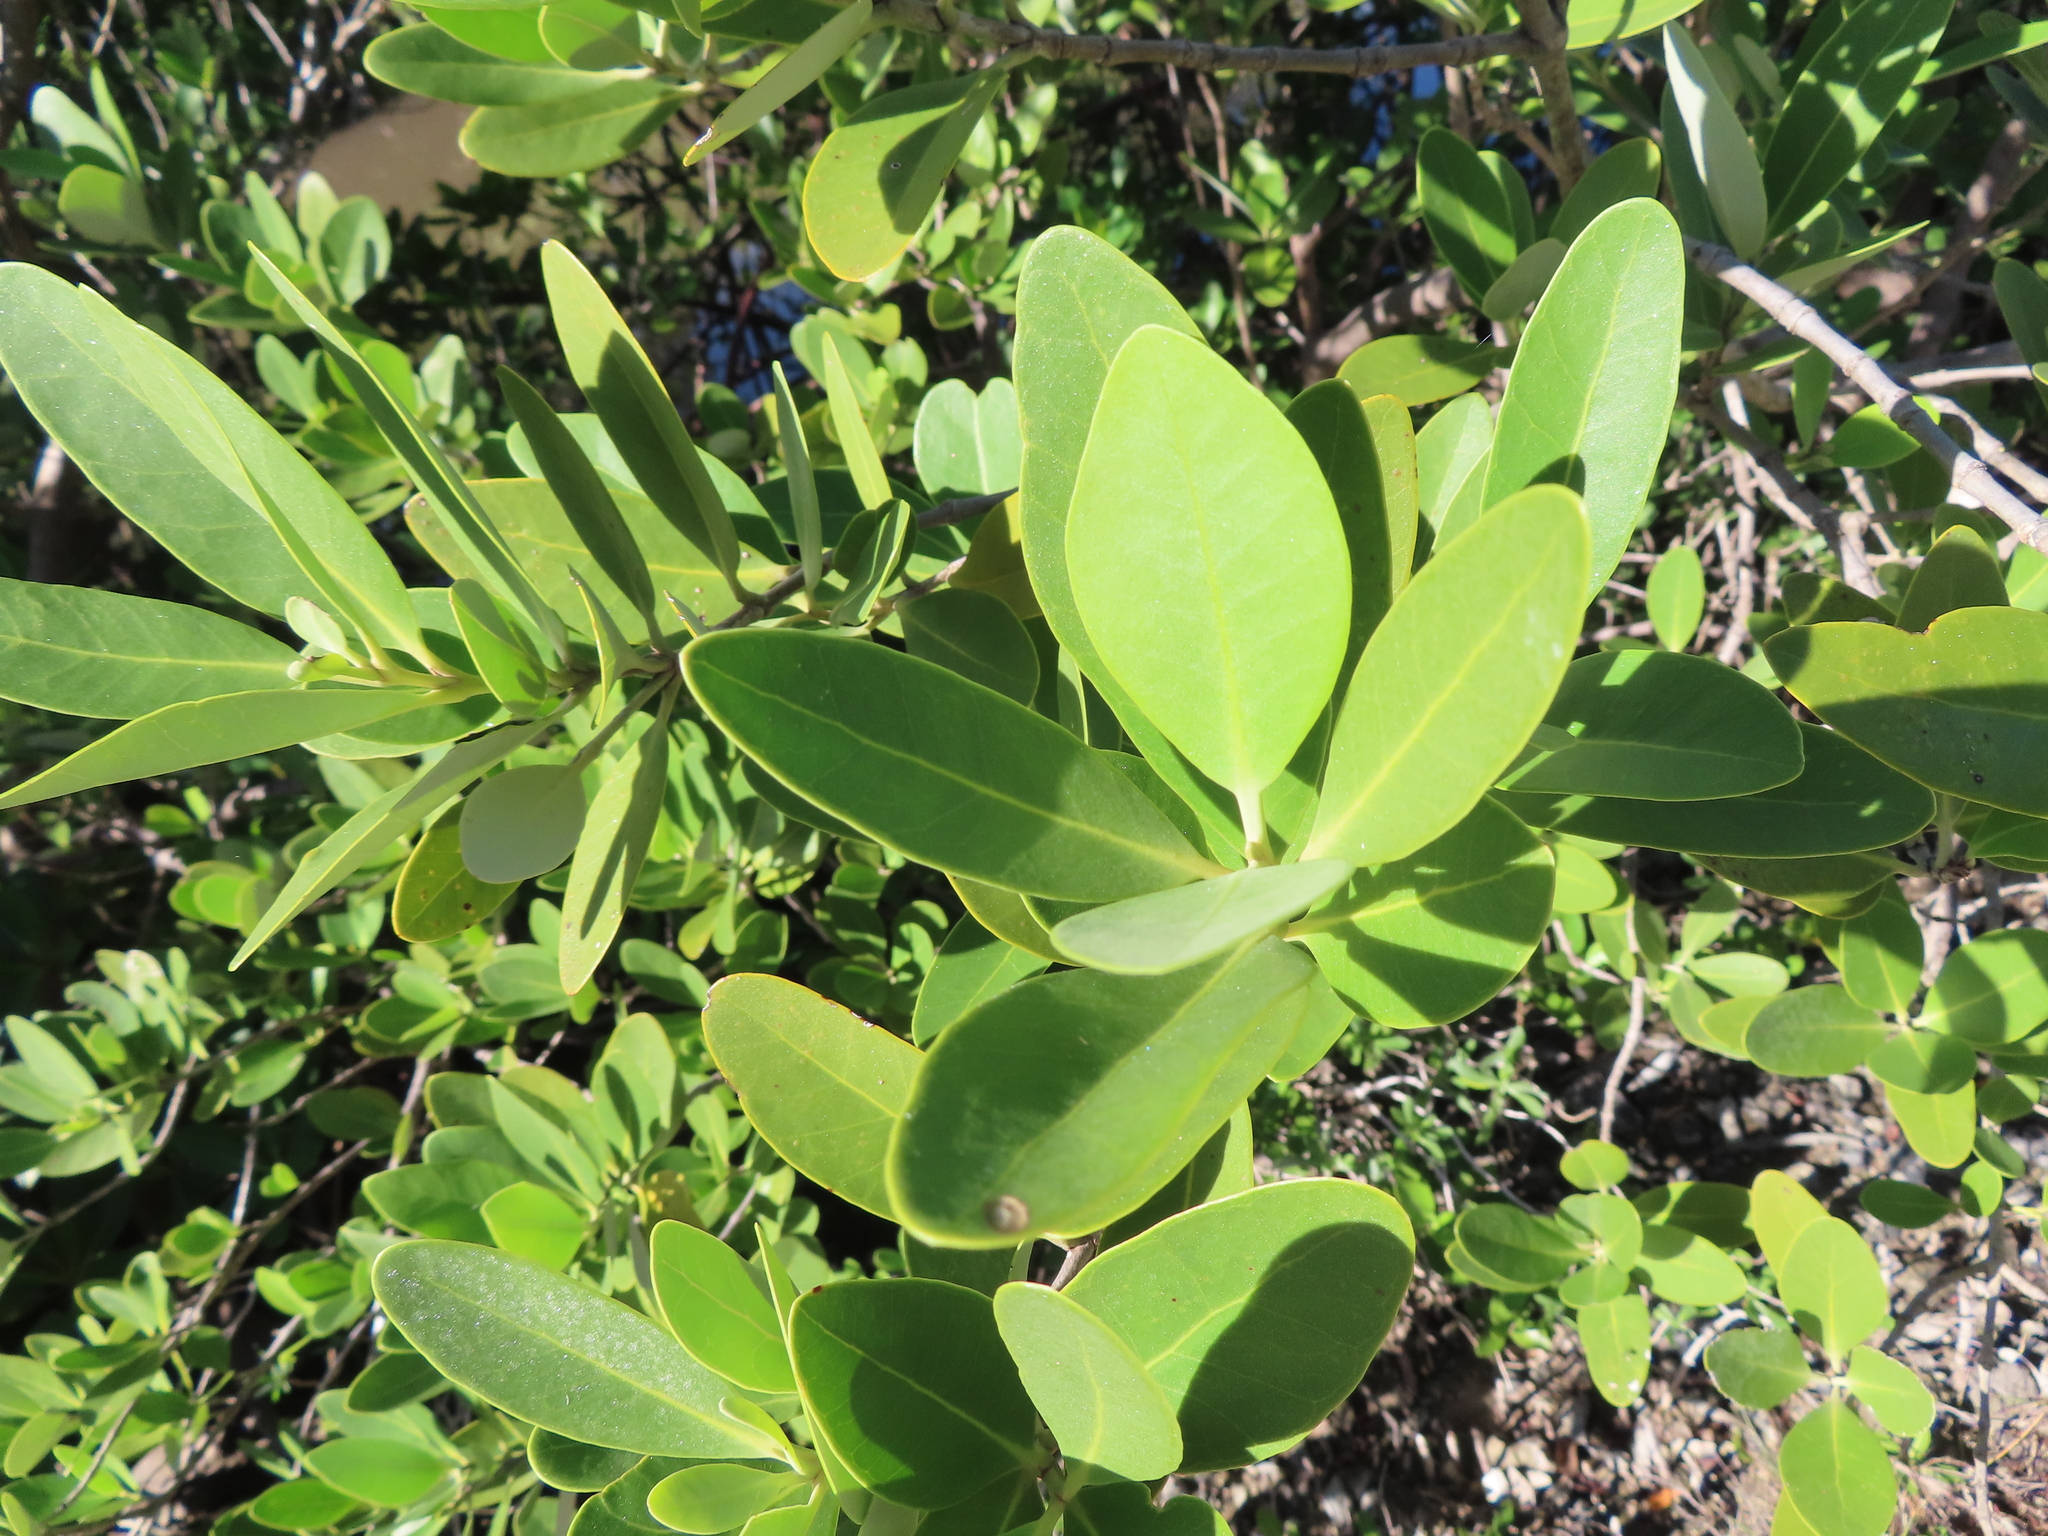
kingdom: Plantae
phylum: Tracheophyta
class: Magnoliopsida
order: Lamiales
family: Acanthaceae
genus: Avicennia
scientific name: Avicennia germinans
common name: Black mangrove
